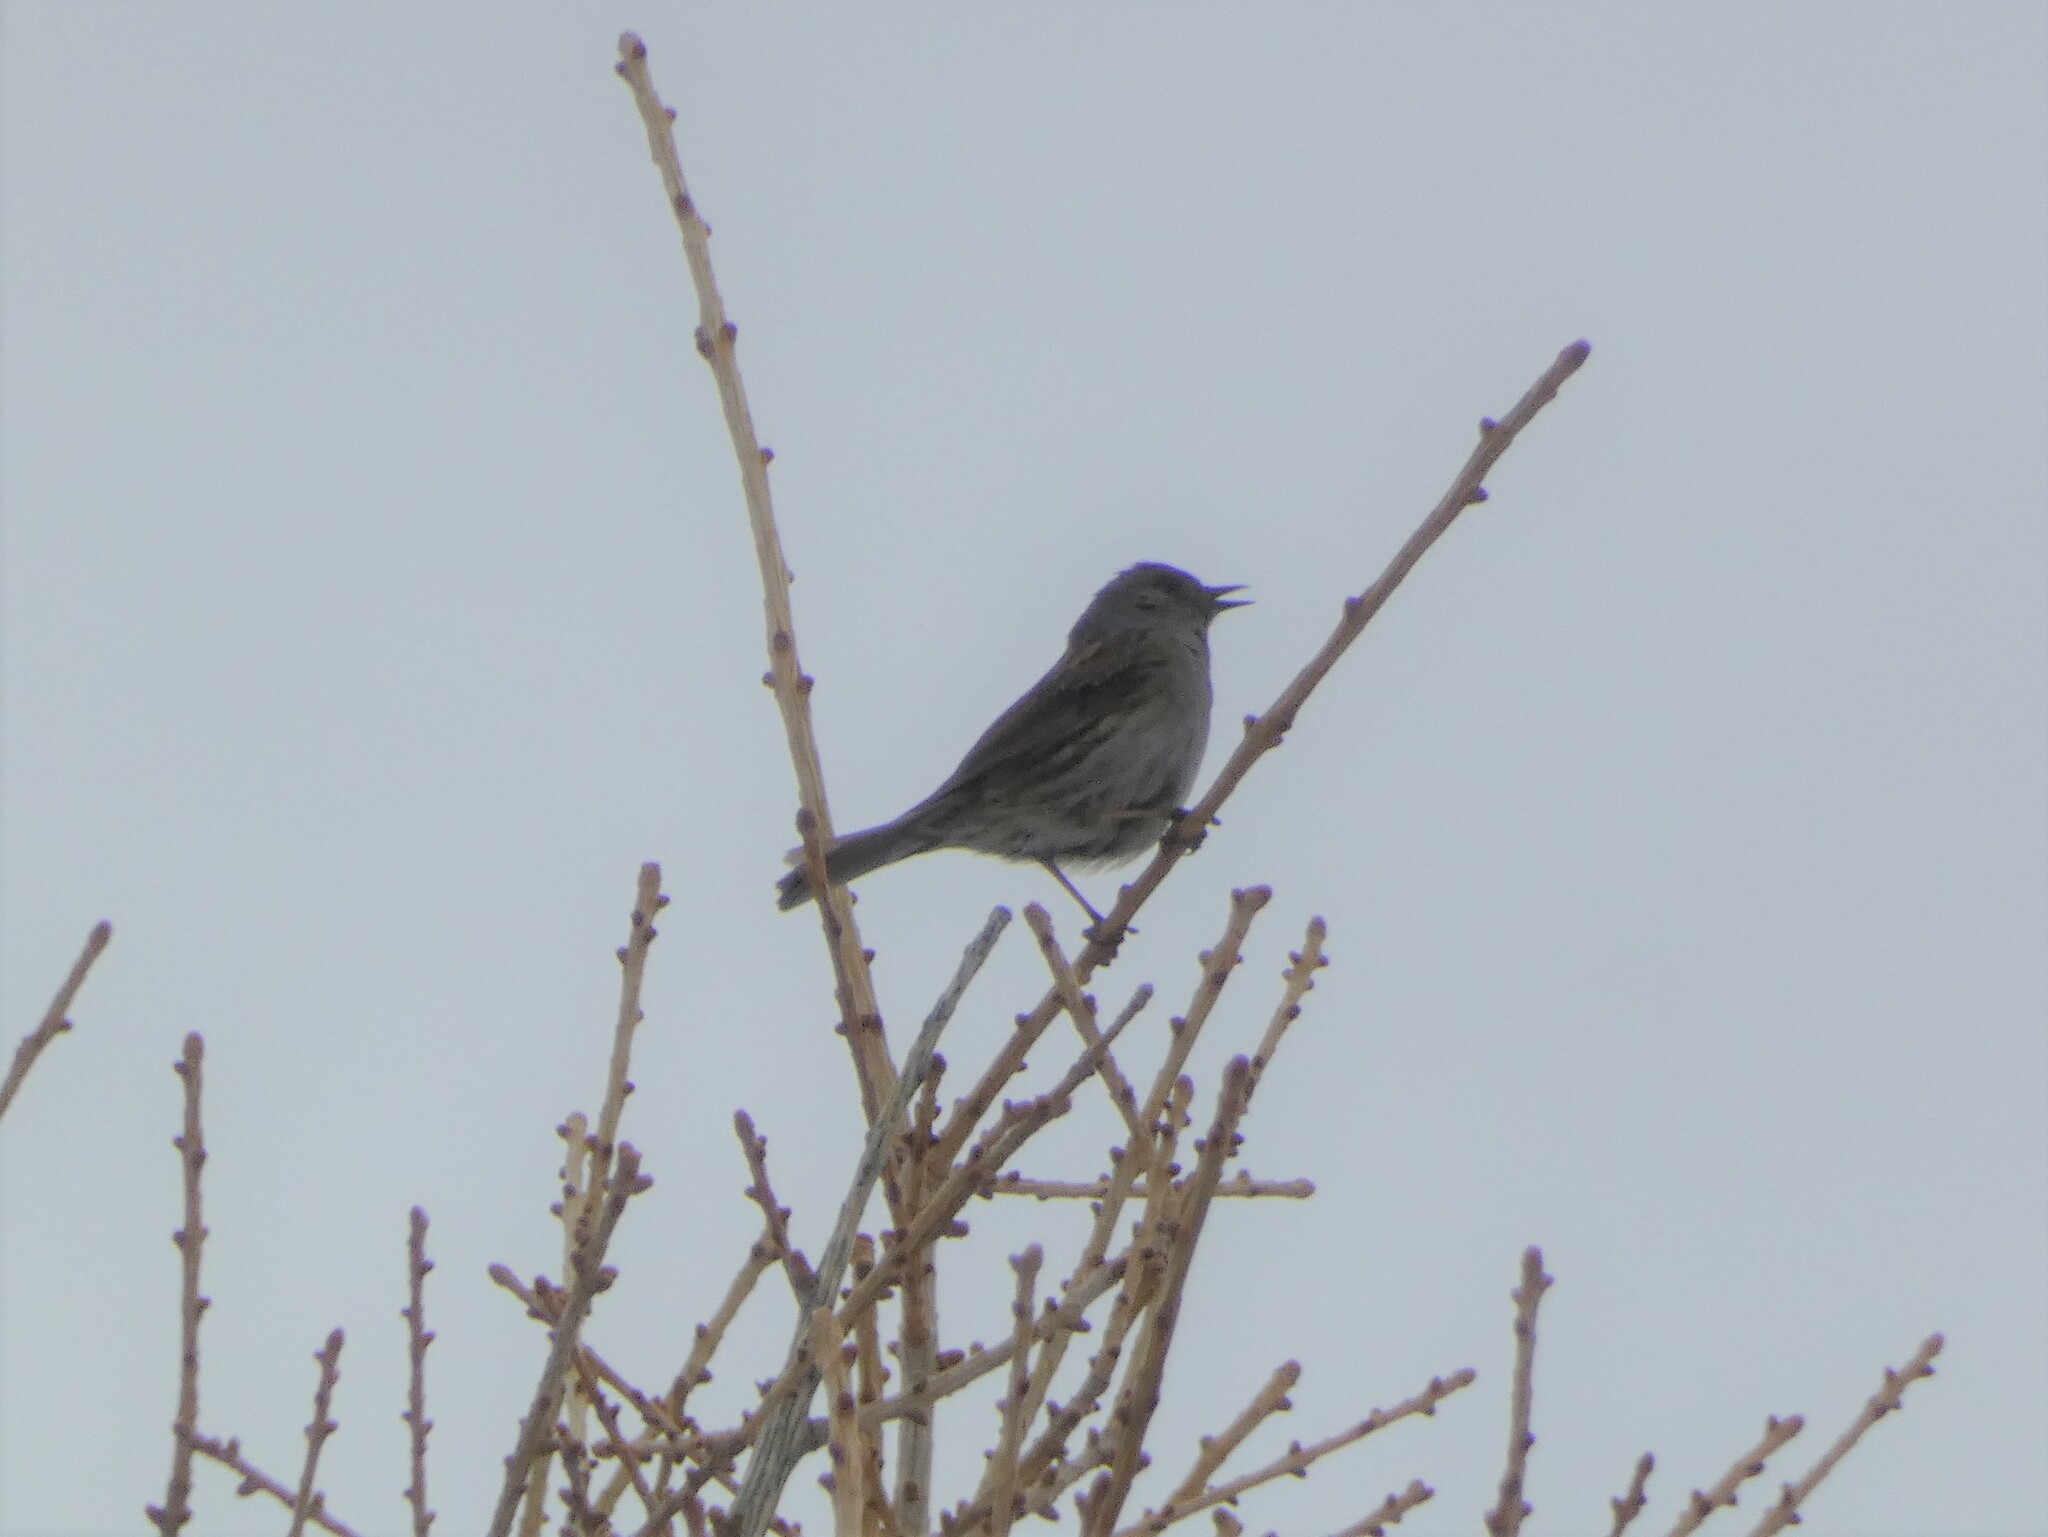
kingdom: Animalia
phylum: Chordata
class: Aves
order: Passeriformes
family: Prunellidae
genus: Prunella
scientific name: Prunella modularis
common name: Dunnock
